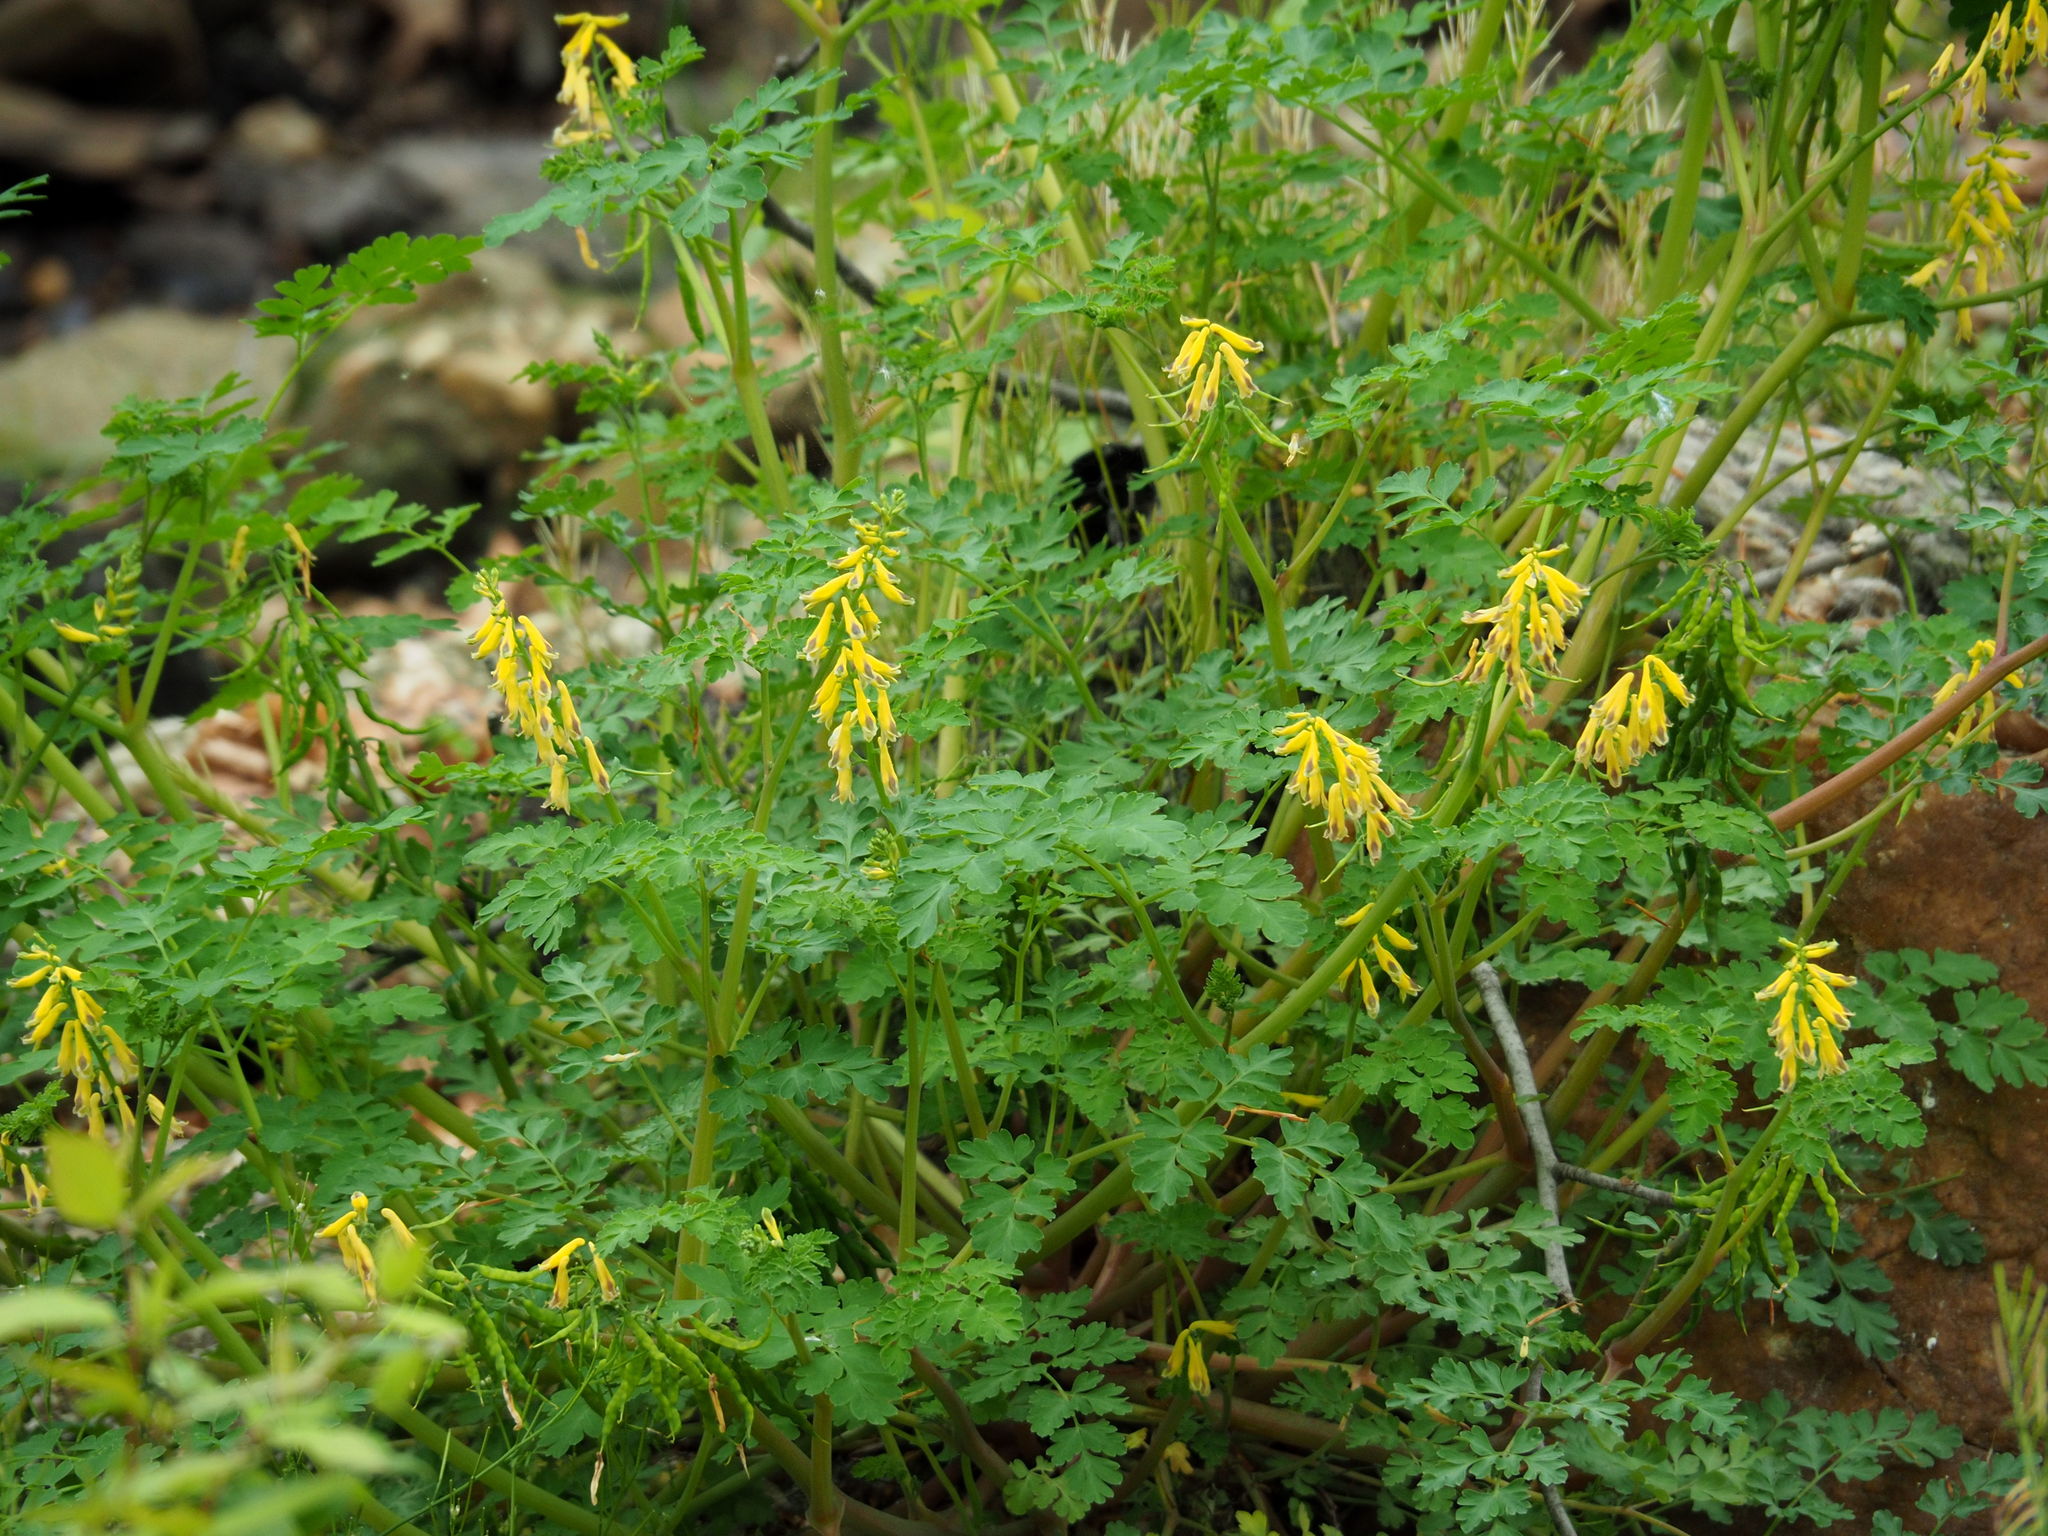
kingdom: Plantae
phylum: Tracheophyta
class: Magnoliopsida
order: Ranunculales
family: Papaveraceae
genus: Corydalis
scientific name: Corydalis heterocarpa
